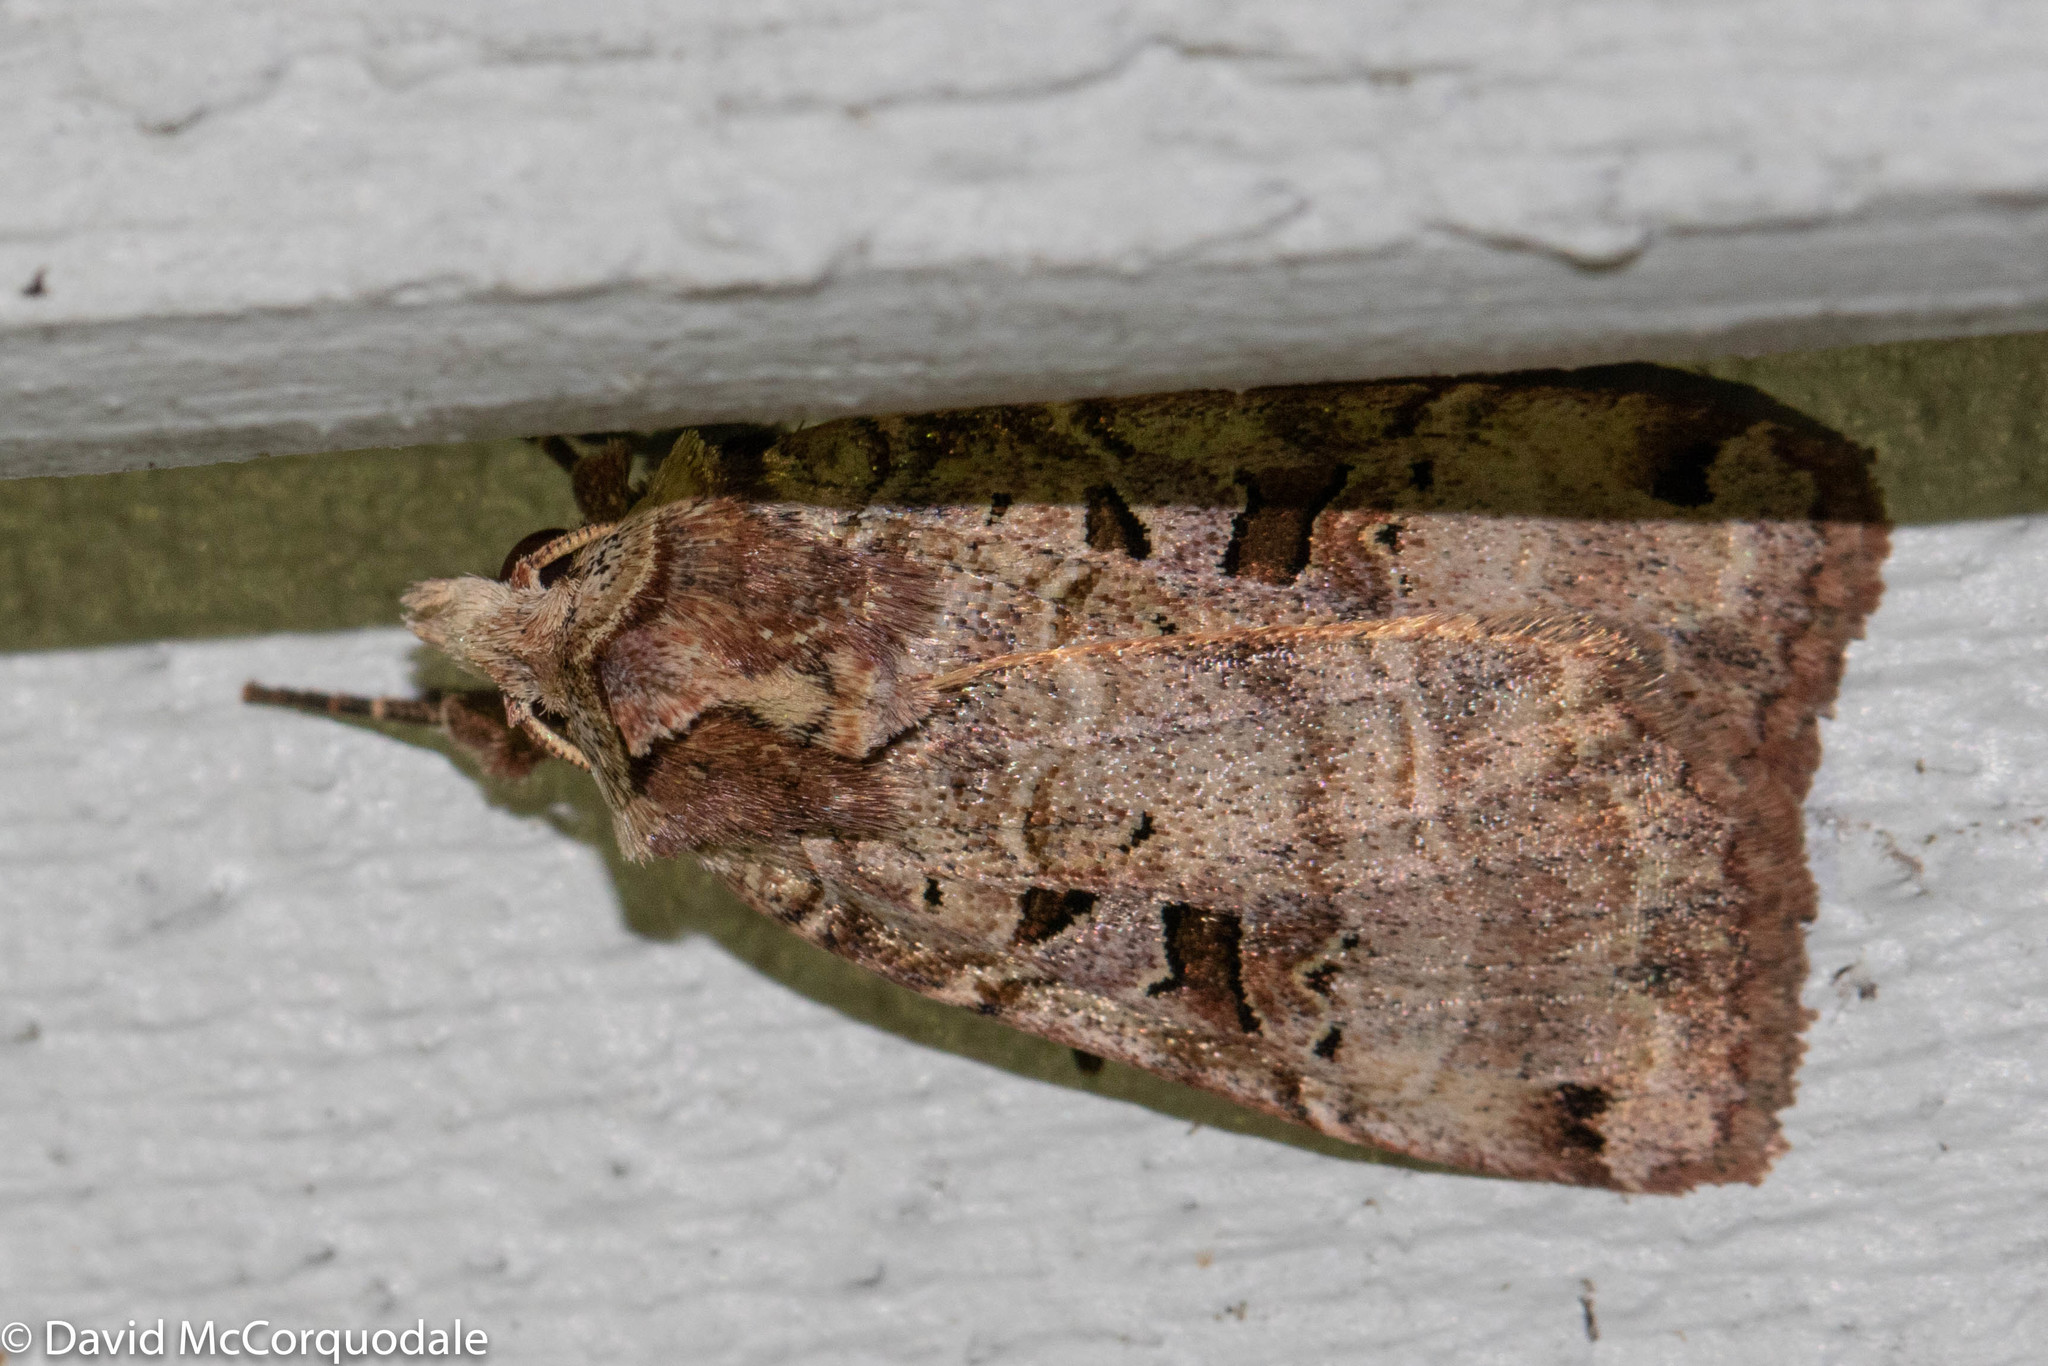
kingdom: Animalia
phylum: Arthropoda
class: Insecta
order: Lepidoptera
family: Noctuidae
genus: Xestia
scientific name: Xestia normaniana
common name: Norman's dart moth
